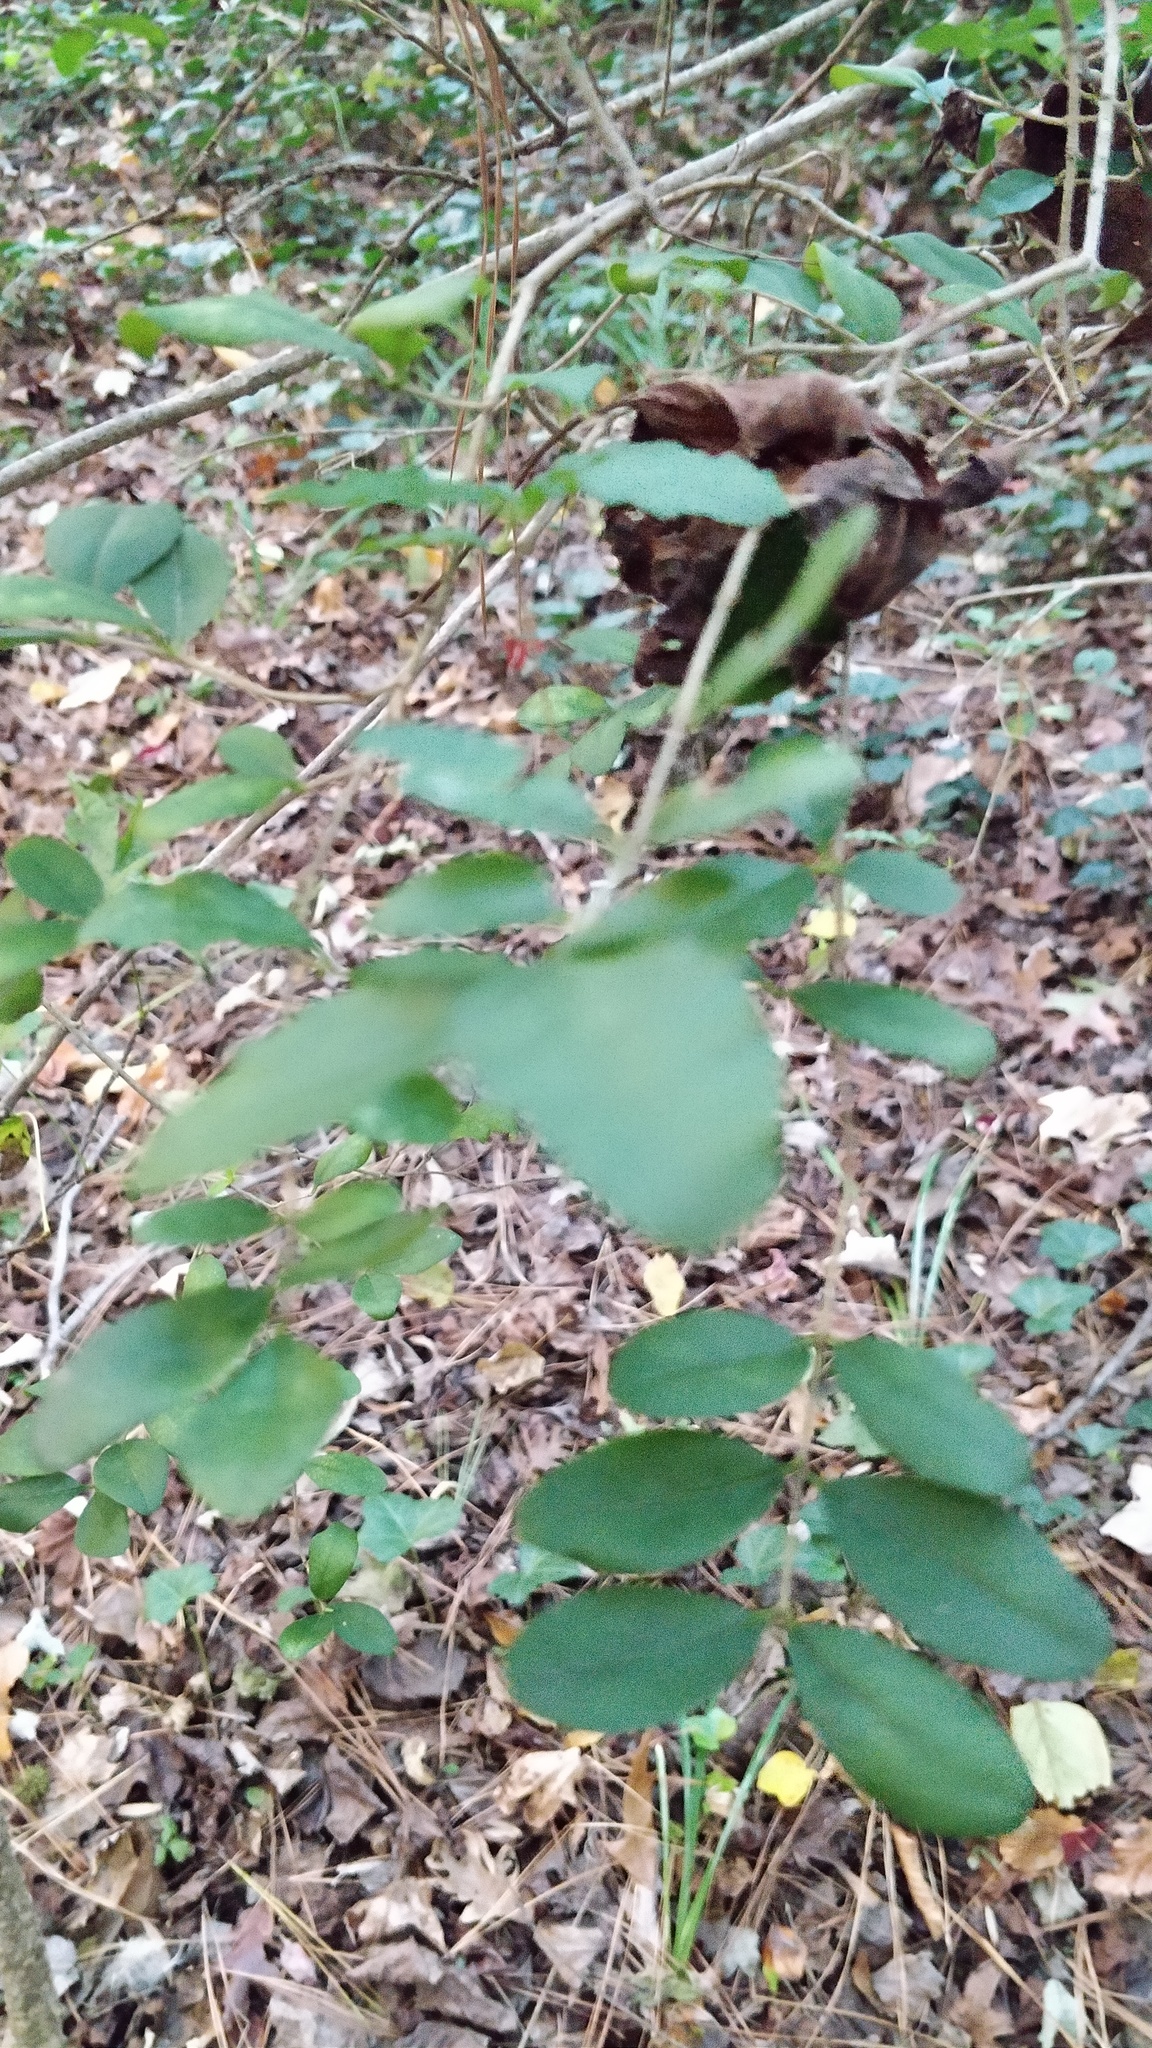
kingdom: Plantae
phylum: Tracheophyta
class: Magnoliopsida
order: Lamiales
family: Oleaceae
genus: Ligustrum
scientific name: Ligustrum sinense
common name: Chinese privet
